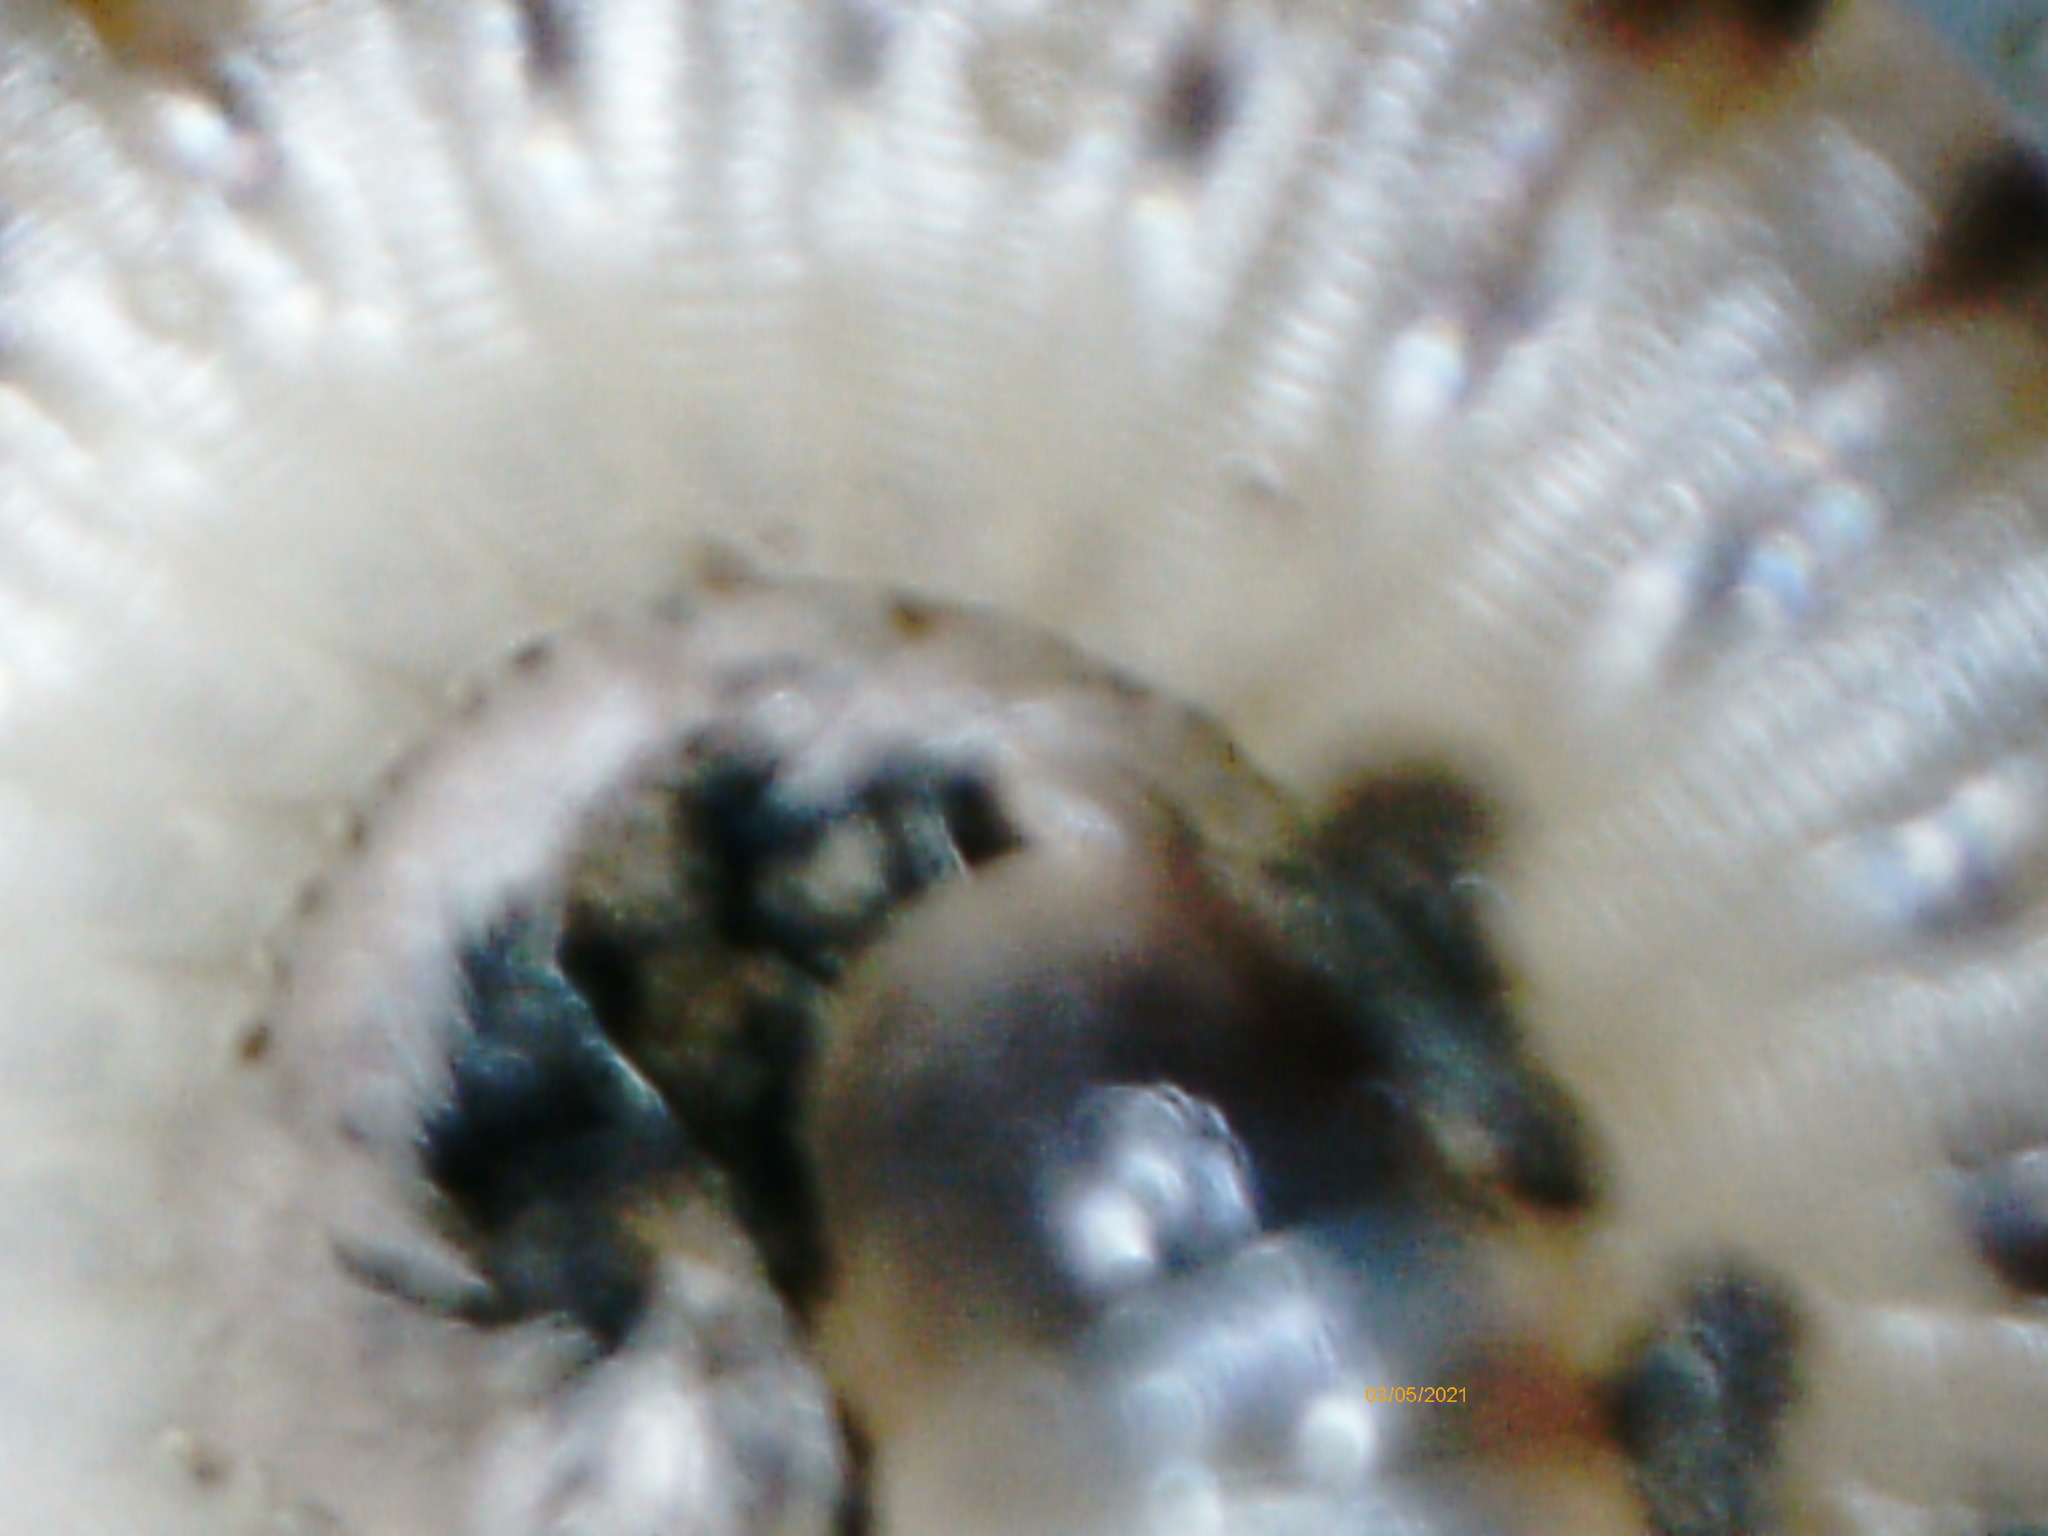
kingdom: Animalia
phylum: Arthropoda
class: Diplopoda
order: Julida
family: Julidae
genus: Cylindroiulus
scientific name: Cylindroiulus punctatus
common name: Blunt-tailed millipede
